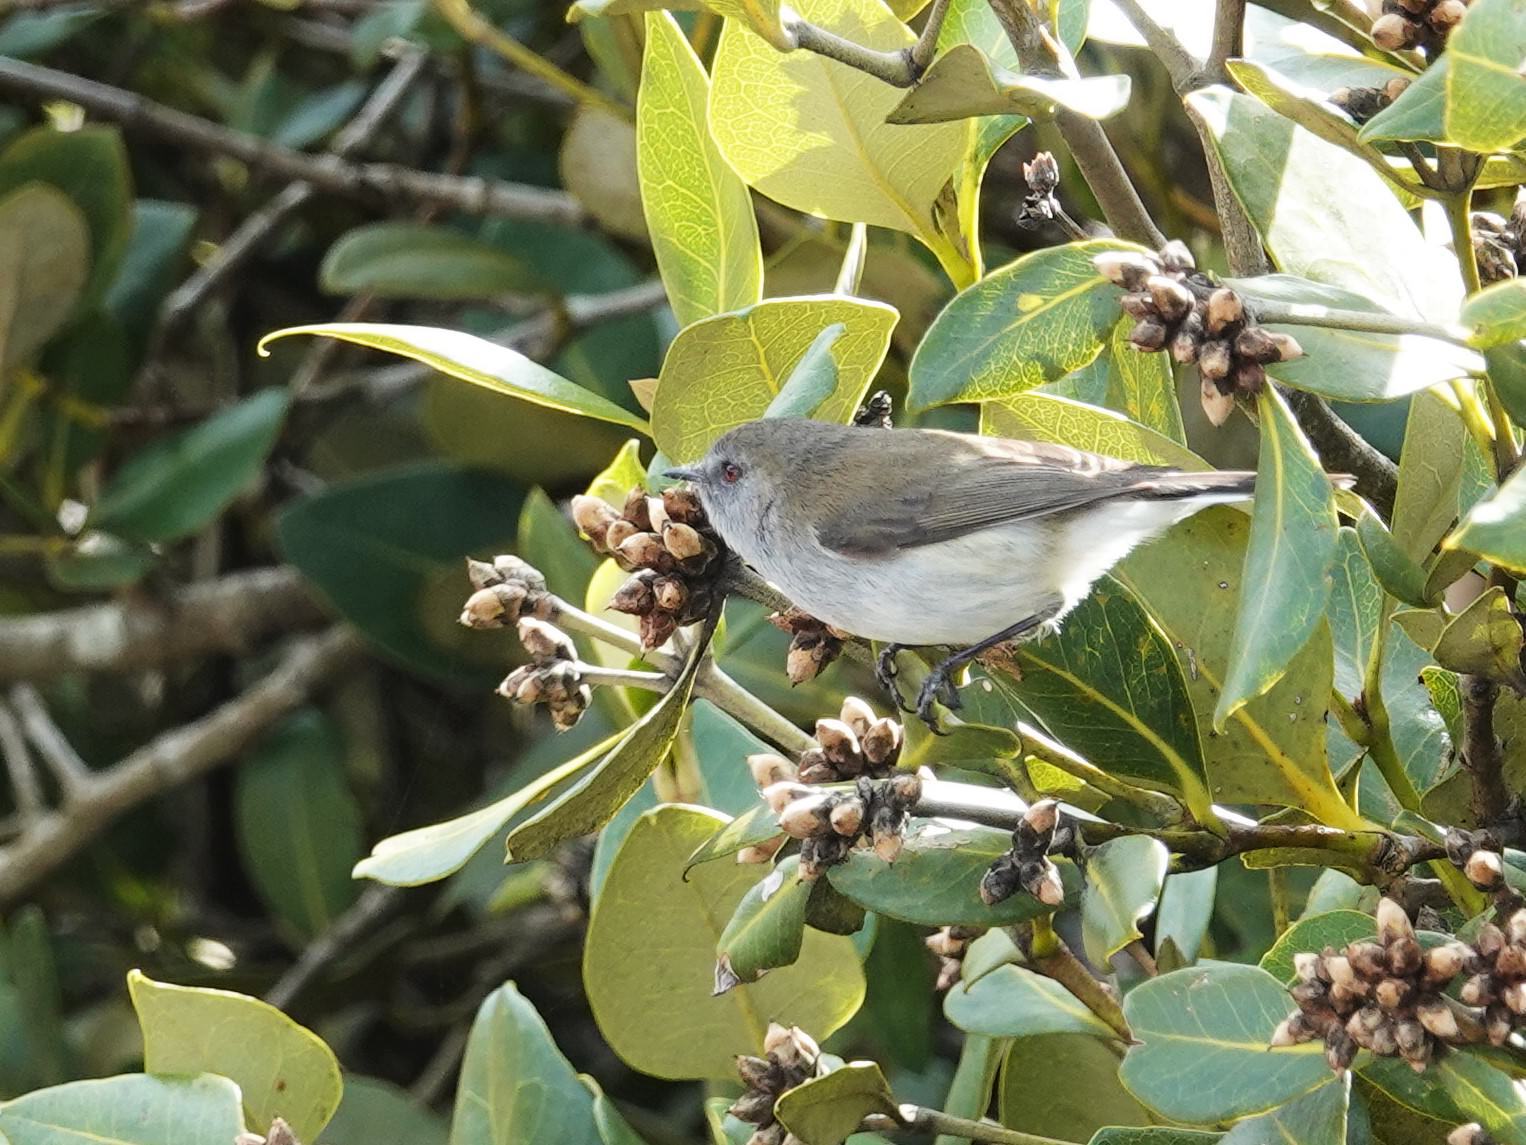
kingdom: Animalia
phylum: Chordata
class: Aves
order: Passeriformes
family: Acanthizidae
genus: Gerygone
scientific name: Gerygone igata
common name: Grey gerygone
